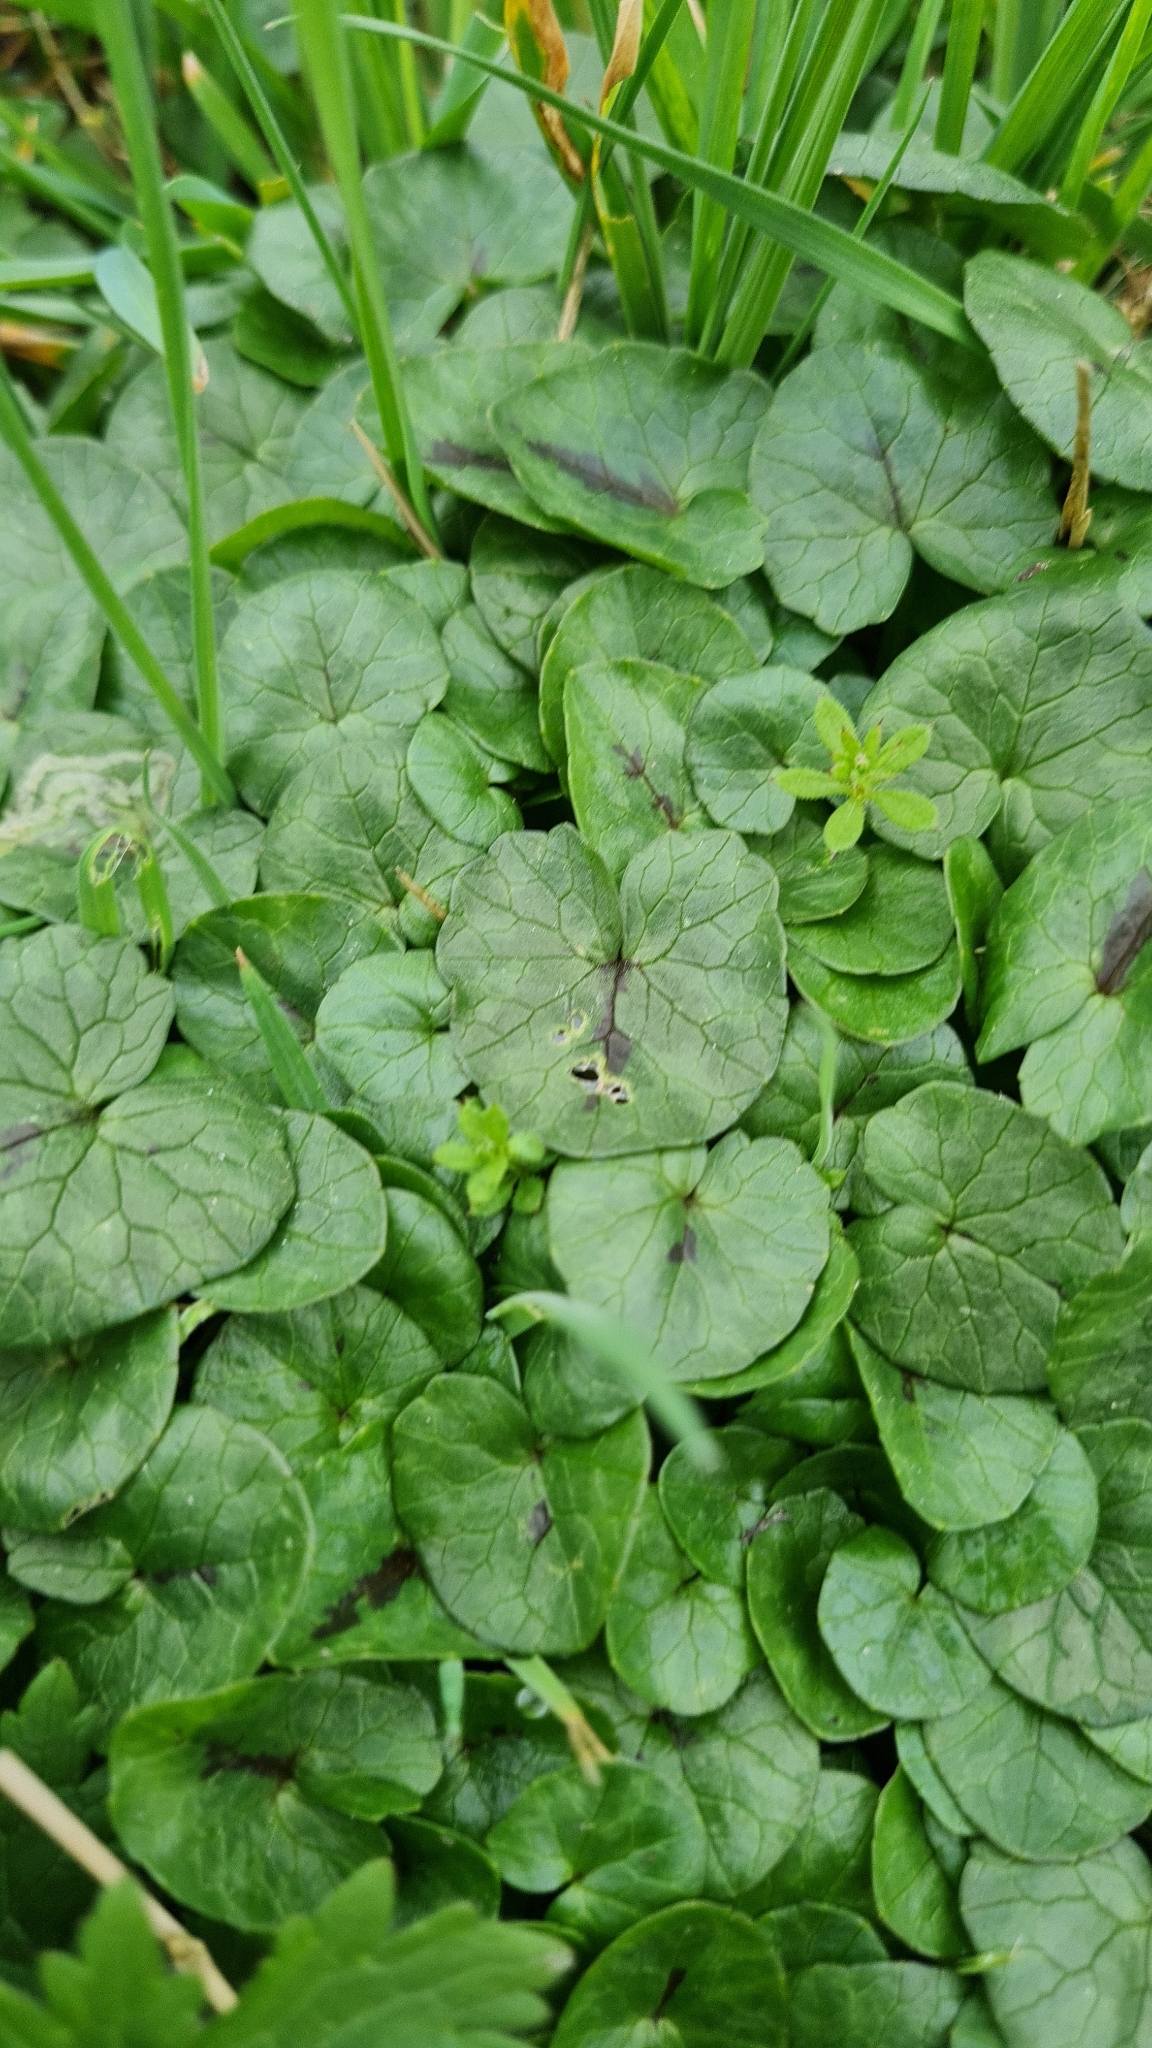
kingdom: Plantae
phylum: Tracheophyta
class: Magnoliopsida
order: Ranunculales
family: Ranunculaceae
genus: Ficaria
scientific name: Ficaria verna
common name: Lesser celandine
